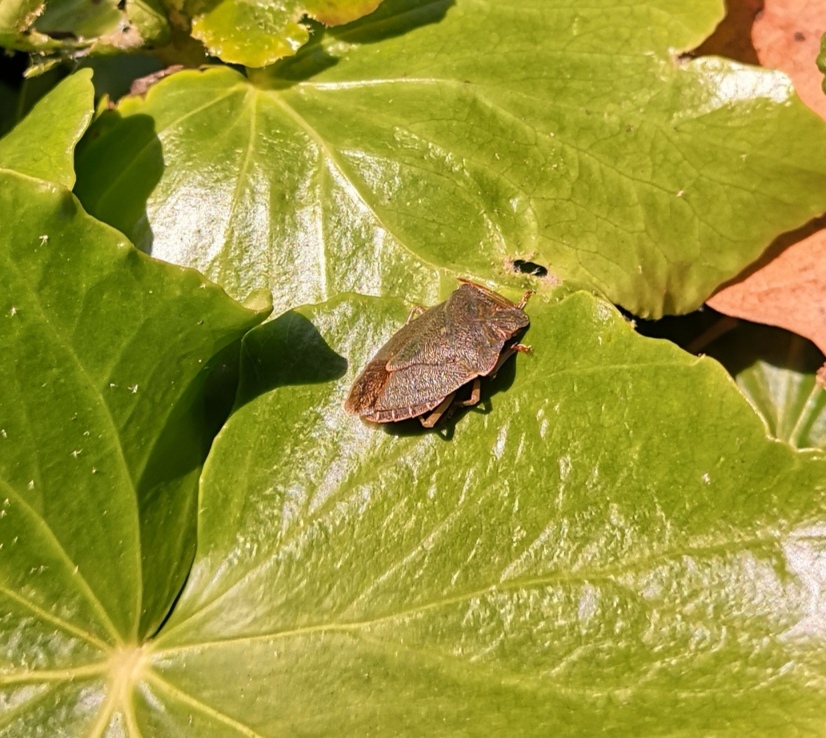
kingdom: Animalia
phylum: Arthropoda
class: Insecta
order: Hemiptera
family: Pentatomidae
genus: Palomena
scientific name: Palomena prasina
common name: Green shieldbug
